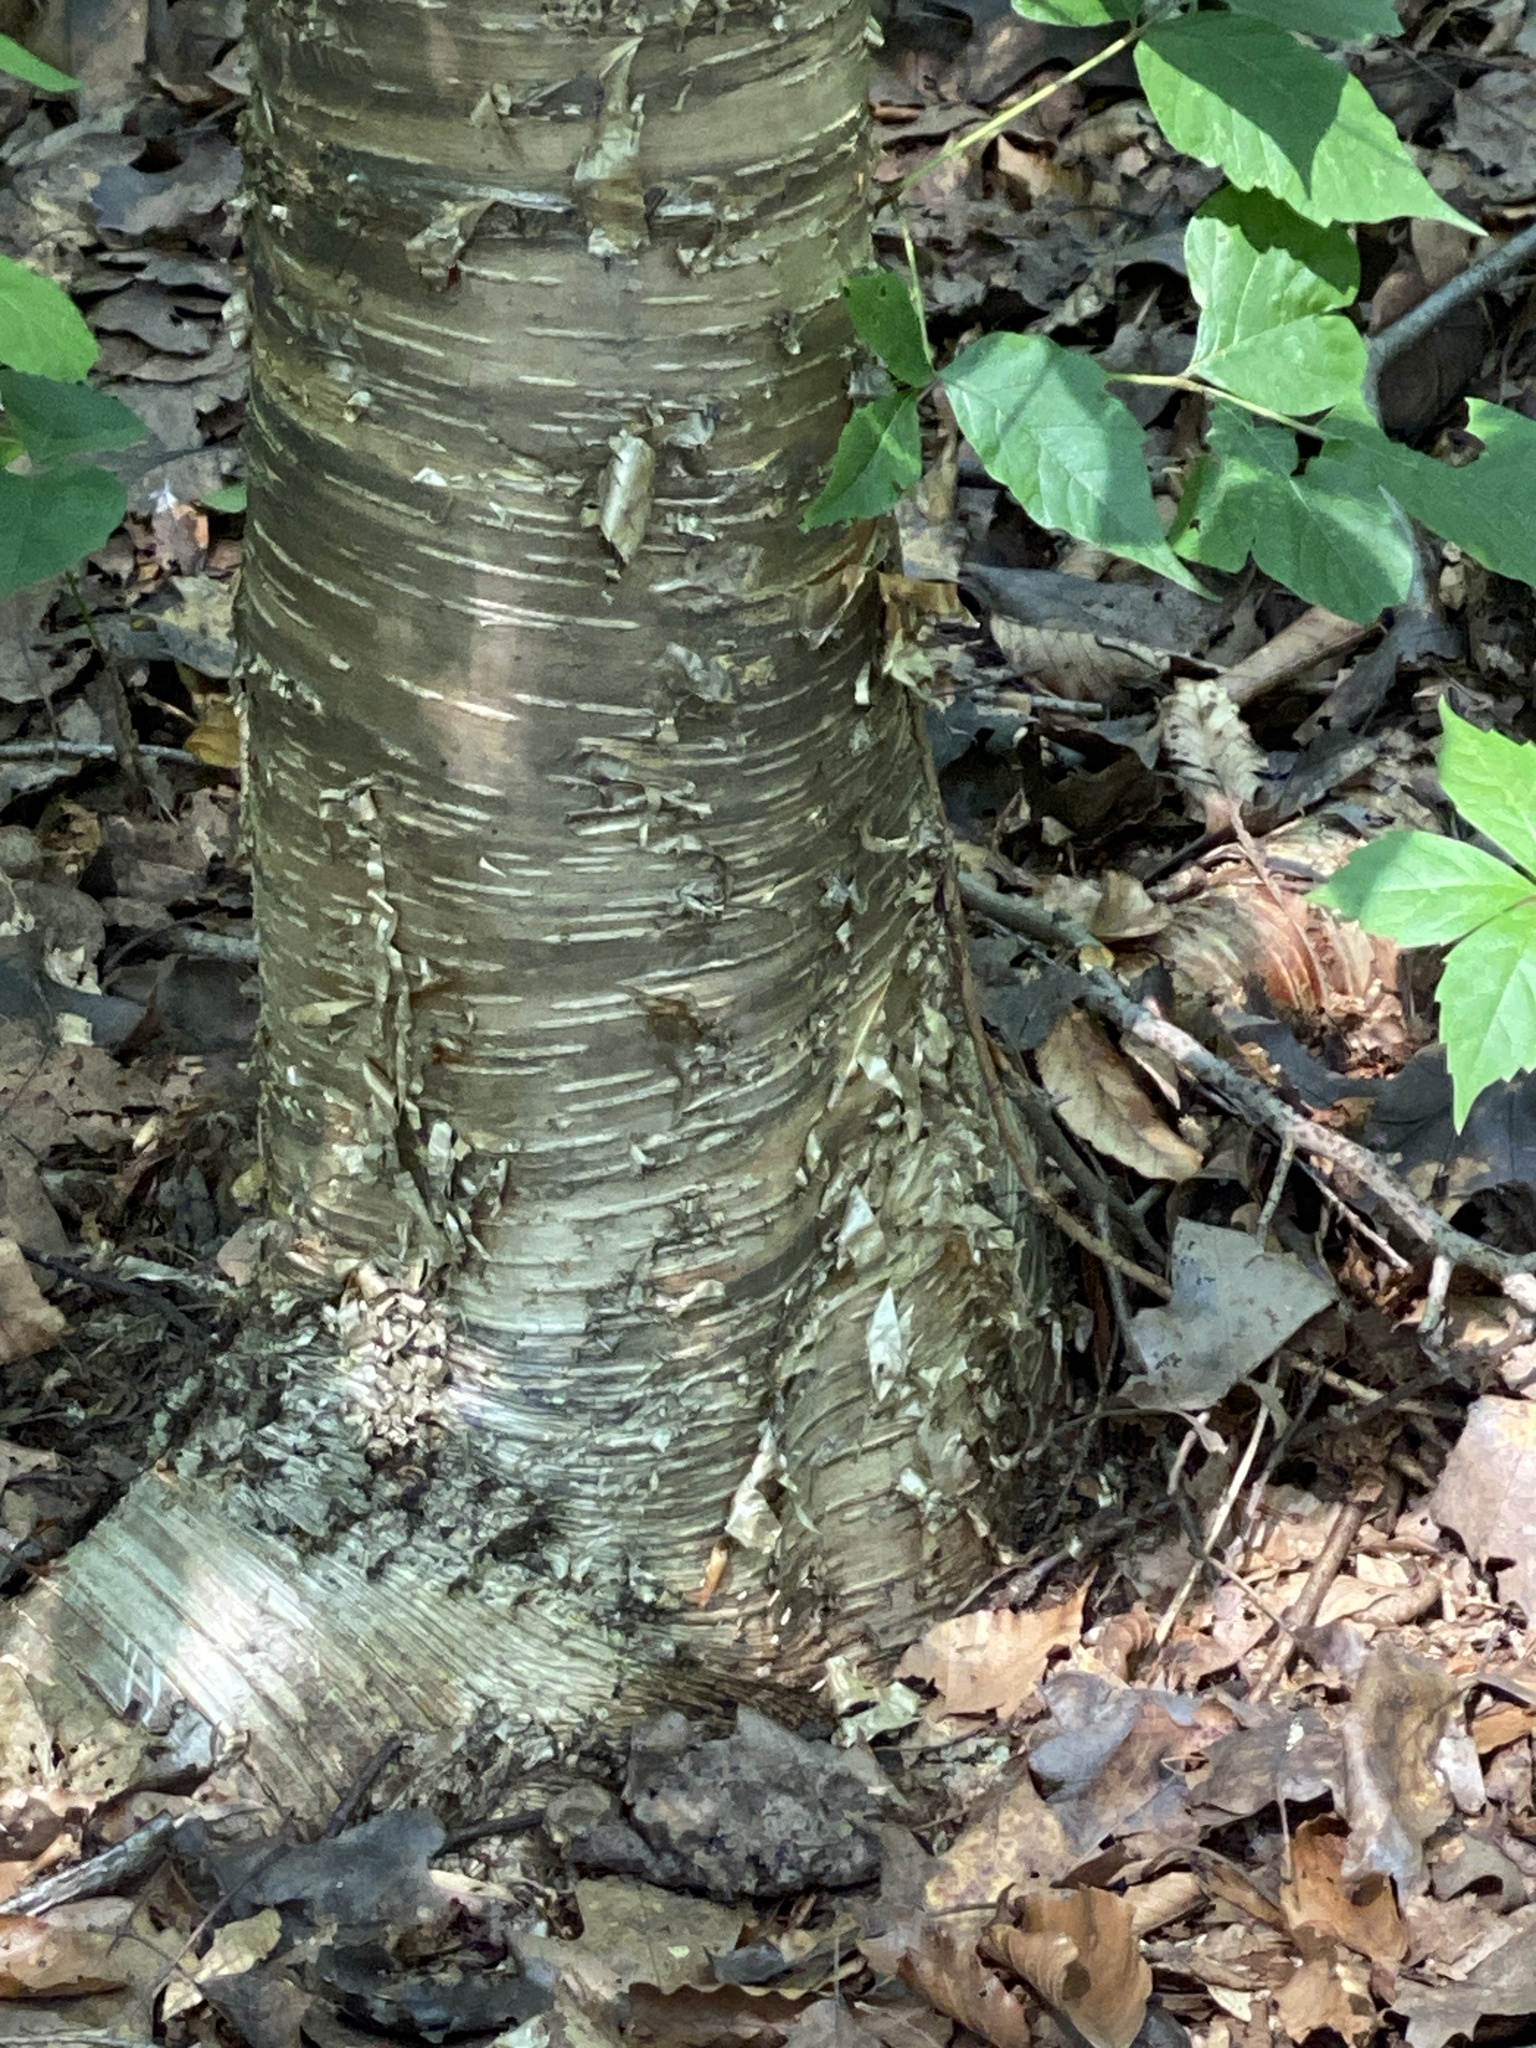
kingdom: Plantae
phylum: Tracheophyta
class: Magnoliopsida
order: Fagales
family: Betulaceae
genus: Betula
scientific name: Betula alleghaniensis
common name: Yellow birch
